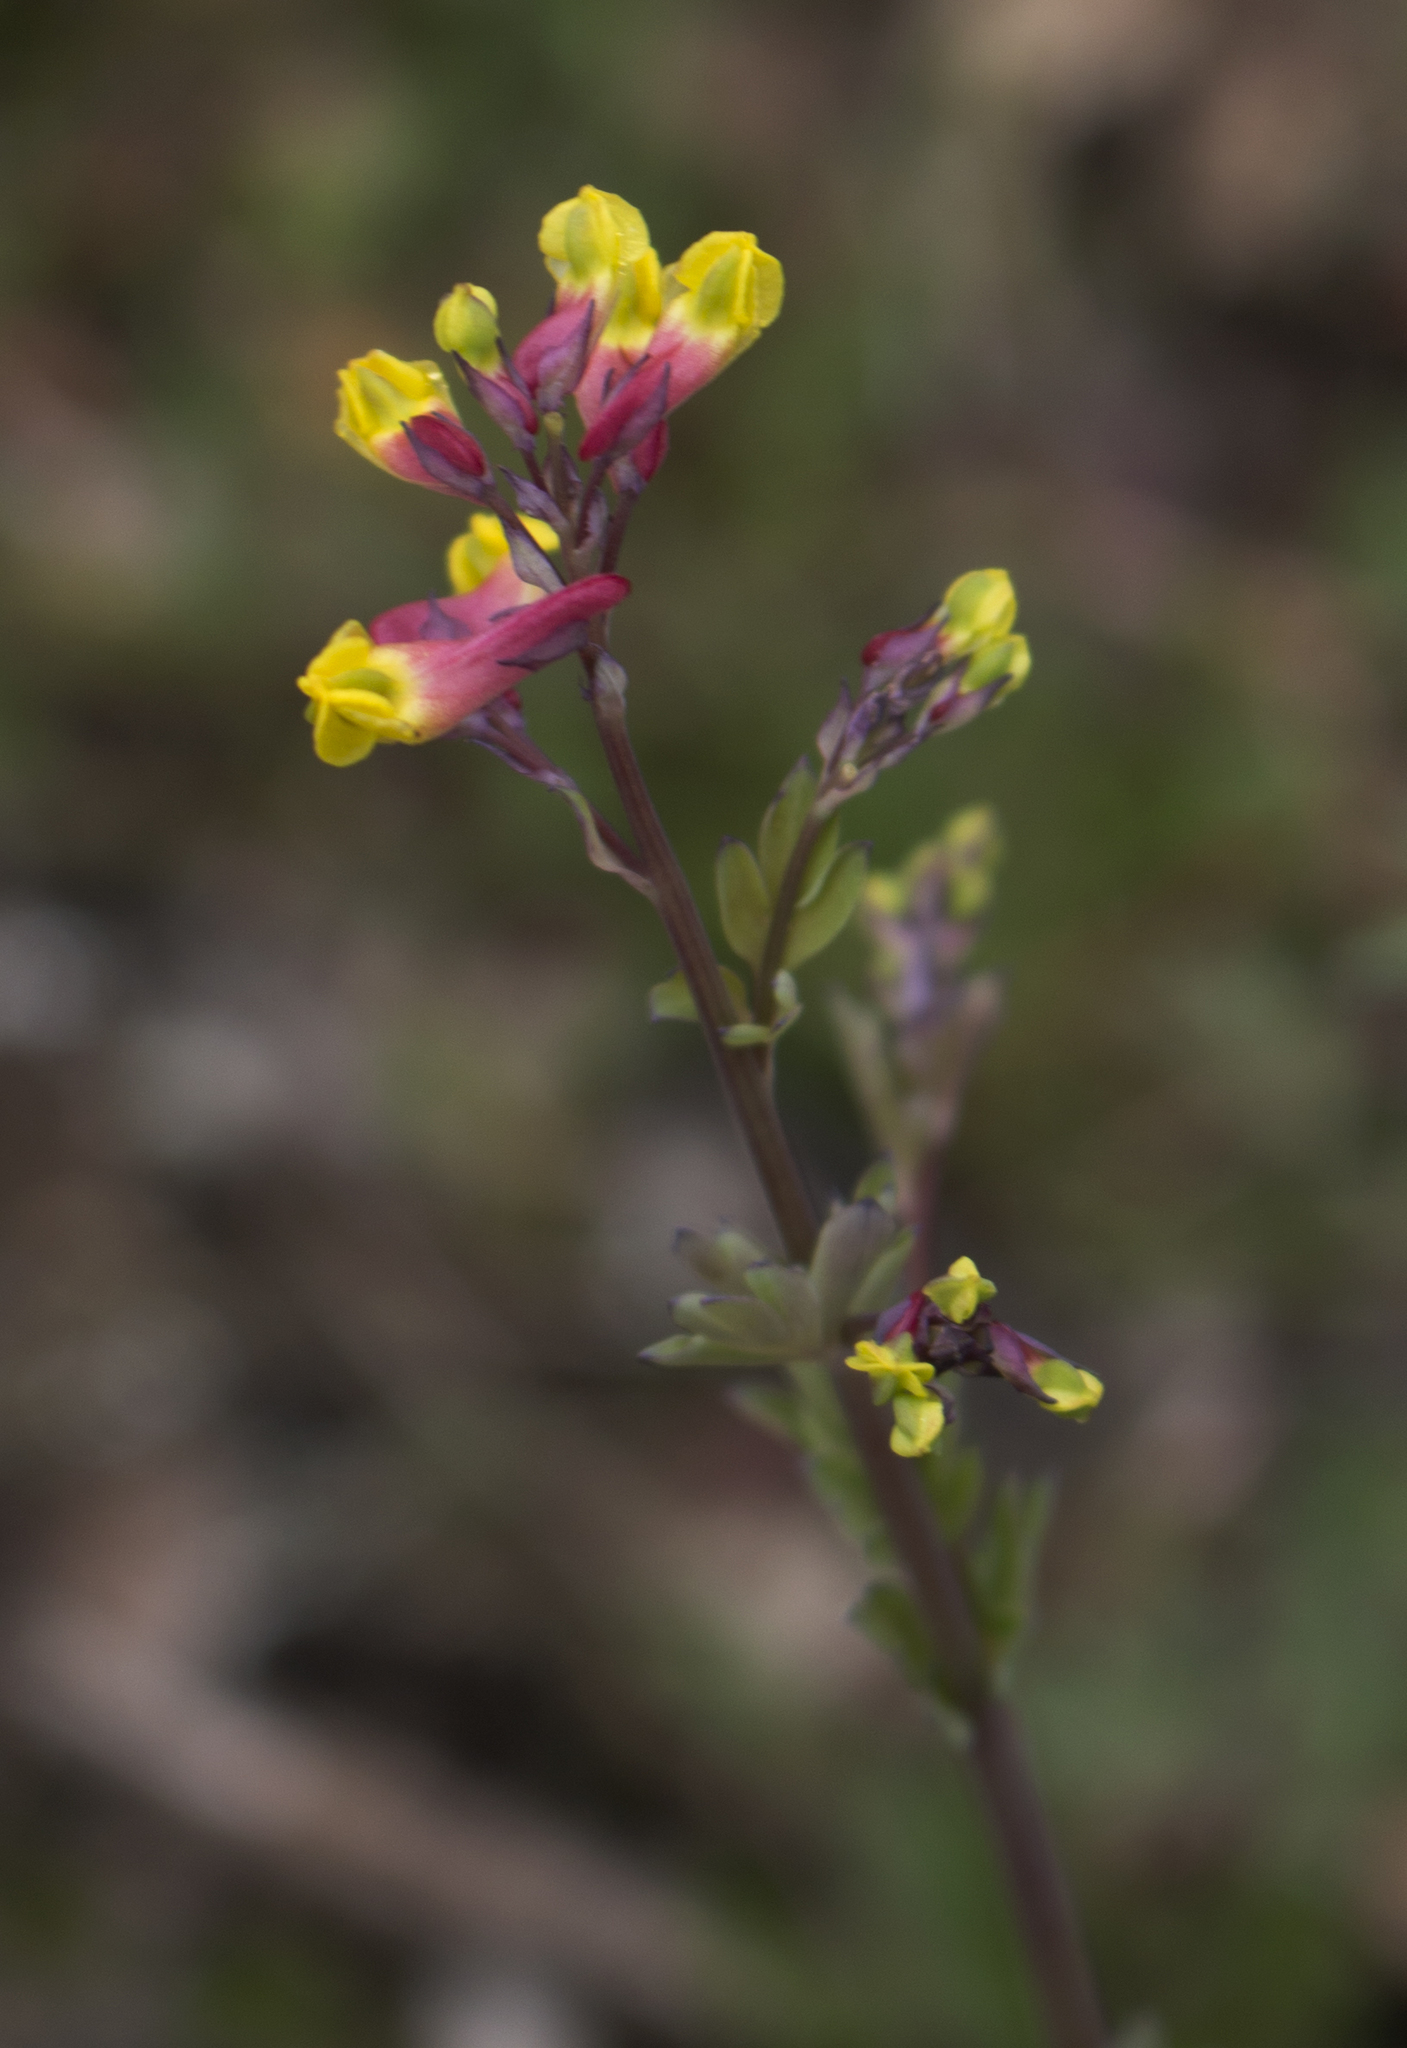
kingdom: Plantae
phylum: Tracheophyta
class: Magnoliopsida
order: Ranunculales
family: Papaveraceae
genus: Capnoides
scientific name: Capnoides sempervirens
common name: Rock harlequin
